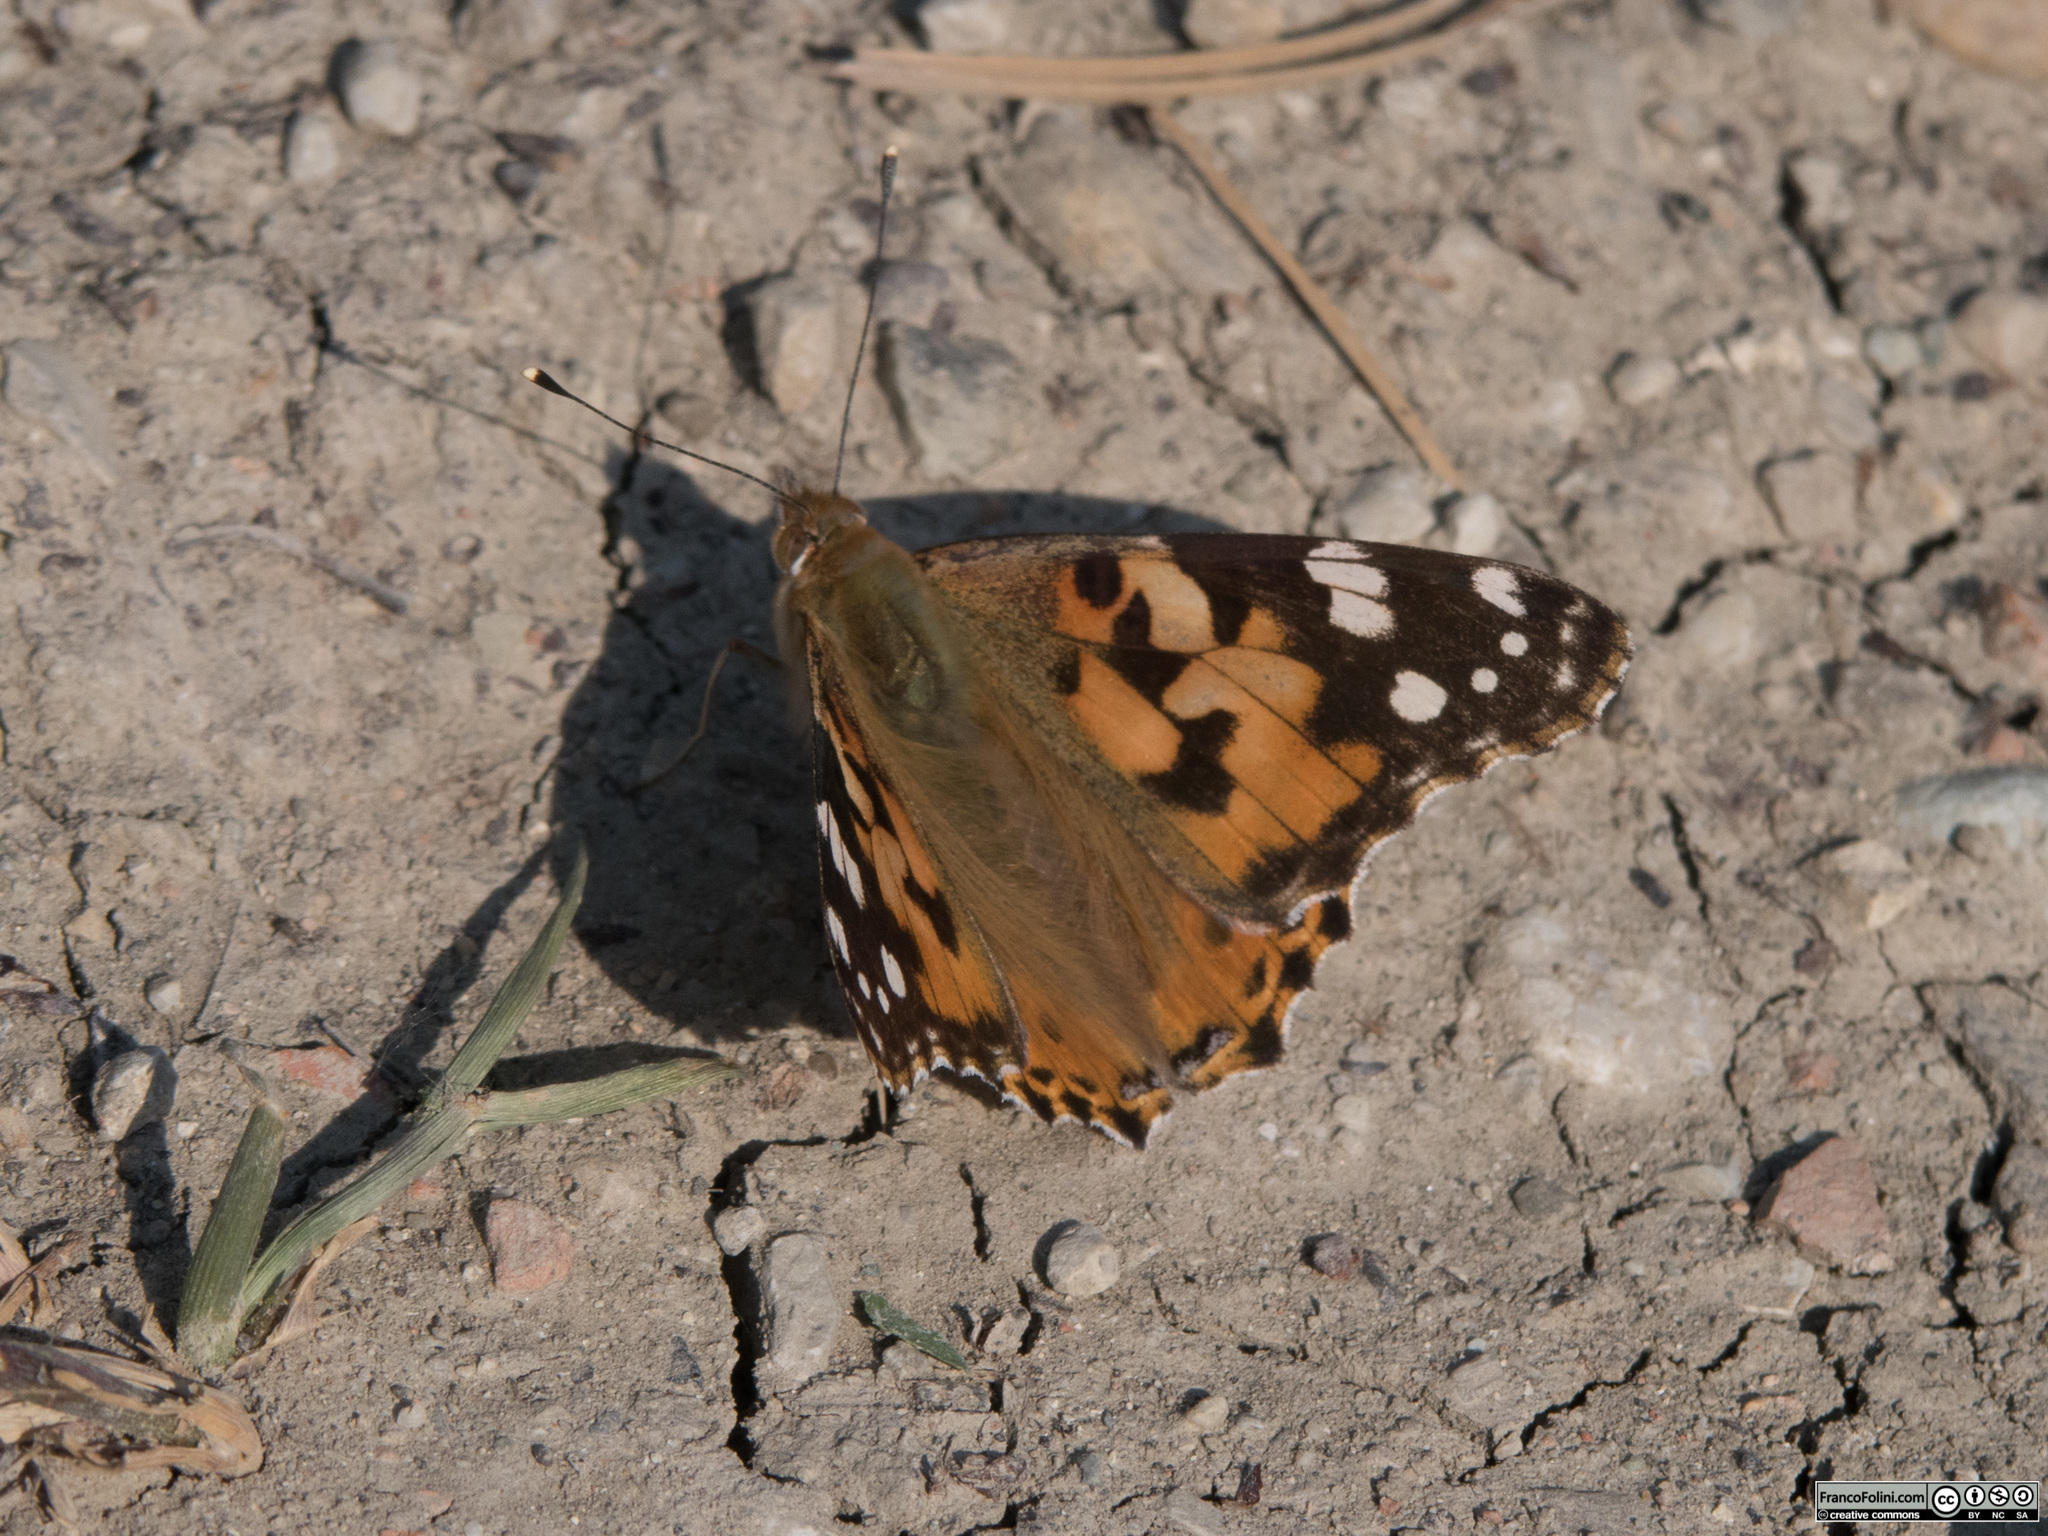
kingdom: Animalia
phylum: Arthropoda
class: Insecta
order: Lepidoptera
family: Nymphalidae
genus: Vanessa
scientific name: Vanessa cardui
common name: Painted lady
